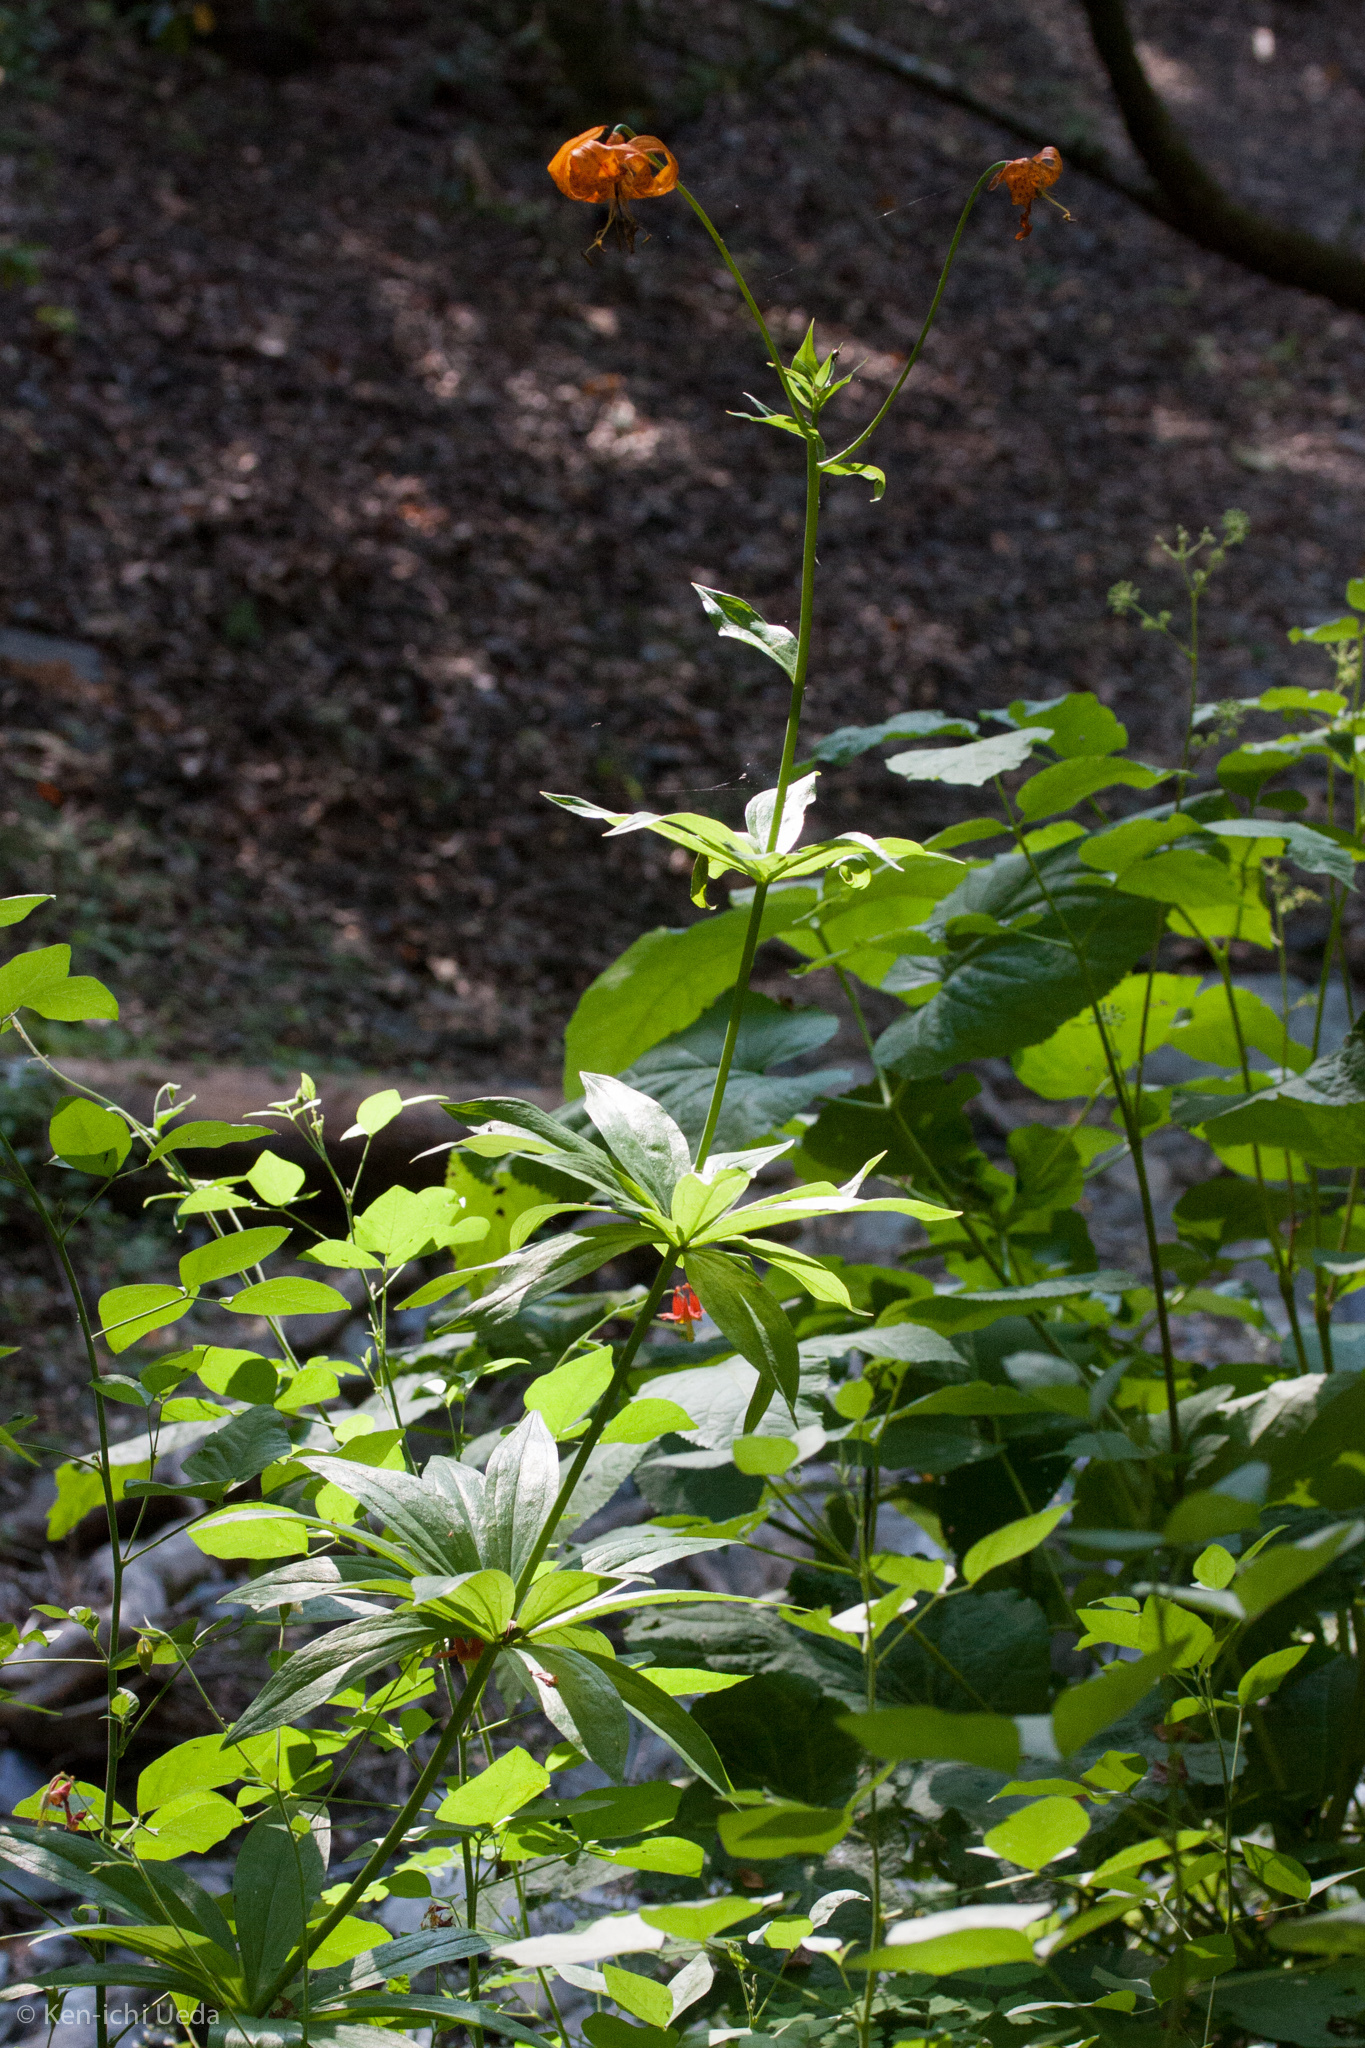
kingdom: Plantae
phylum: Tracheophyta
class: Liliopsida
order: Liliales
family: Liliaceae
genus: Lilium
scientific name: Lilium pardalinum
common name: Panther lily
